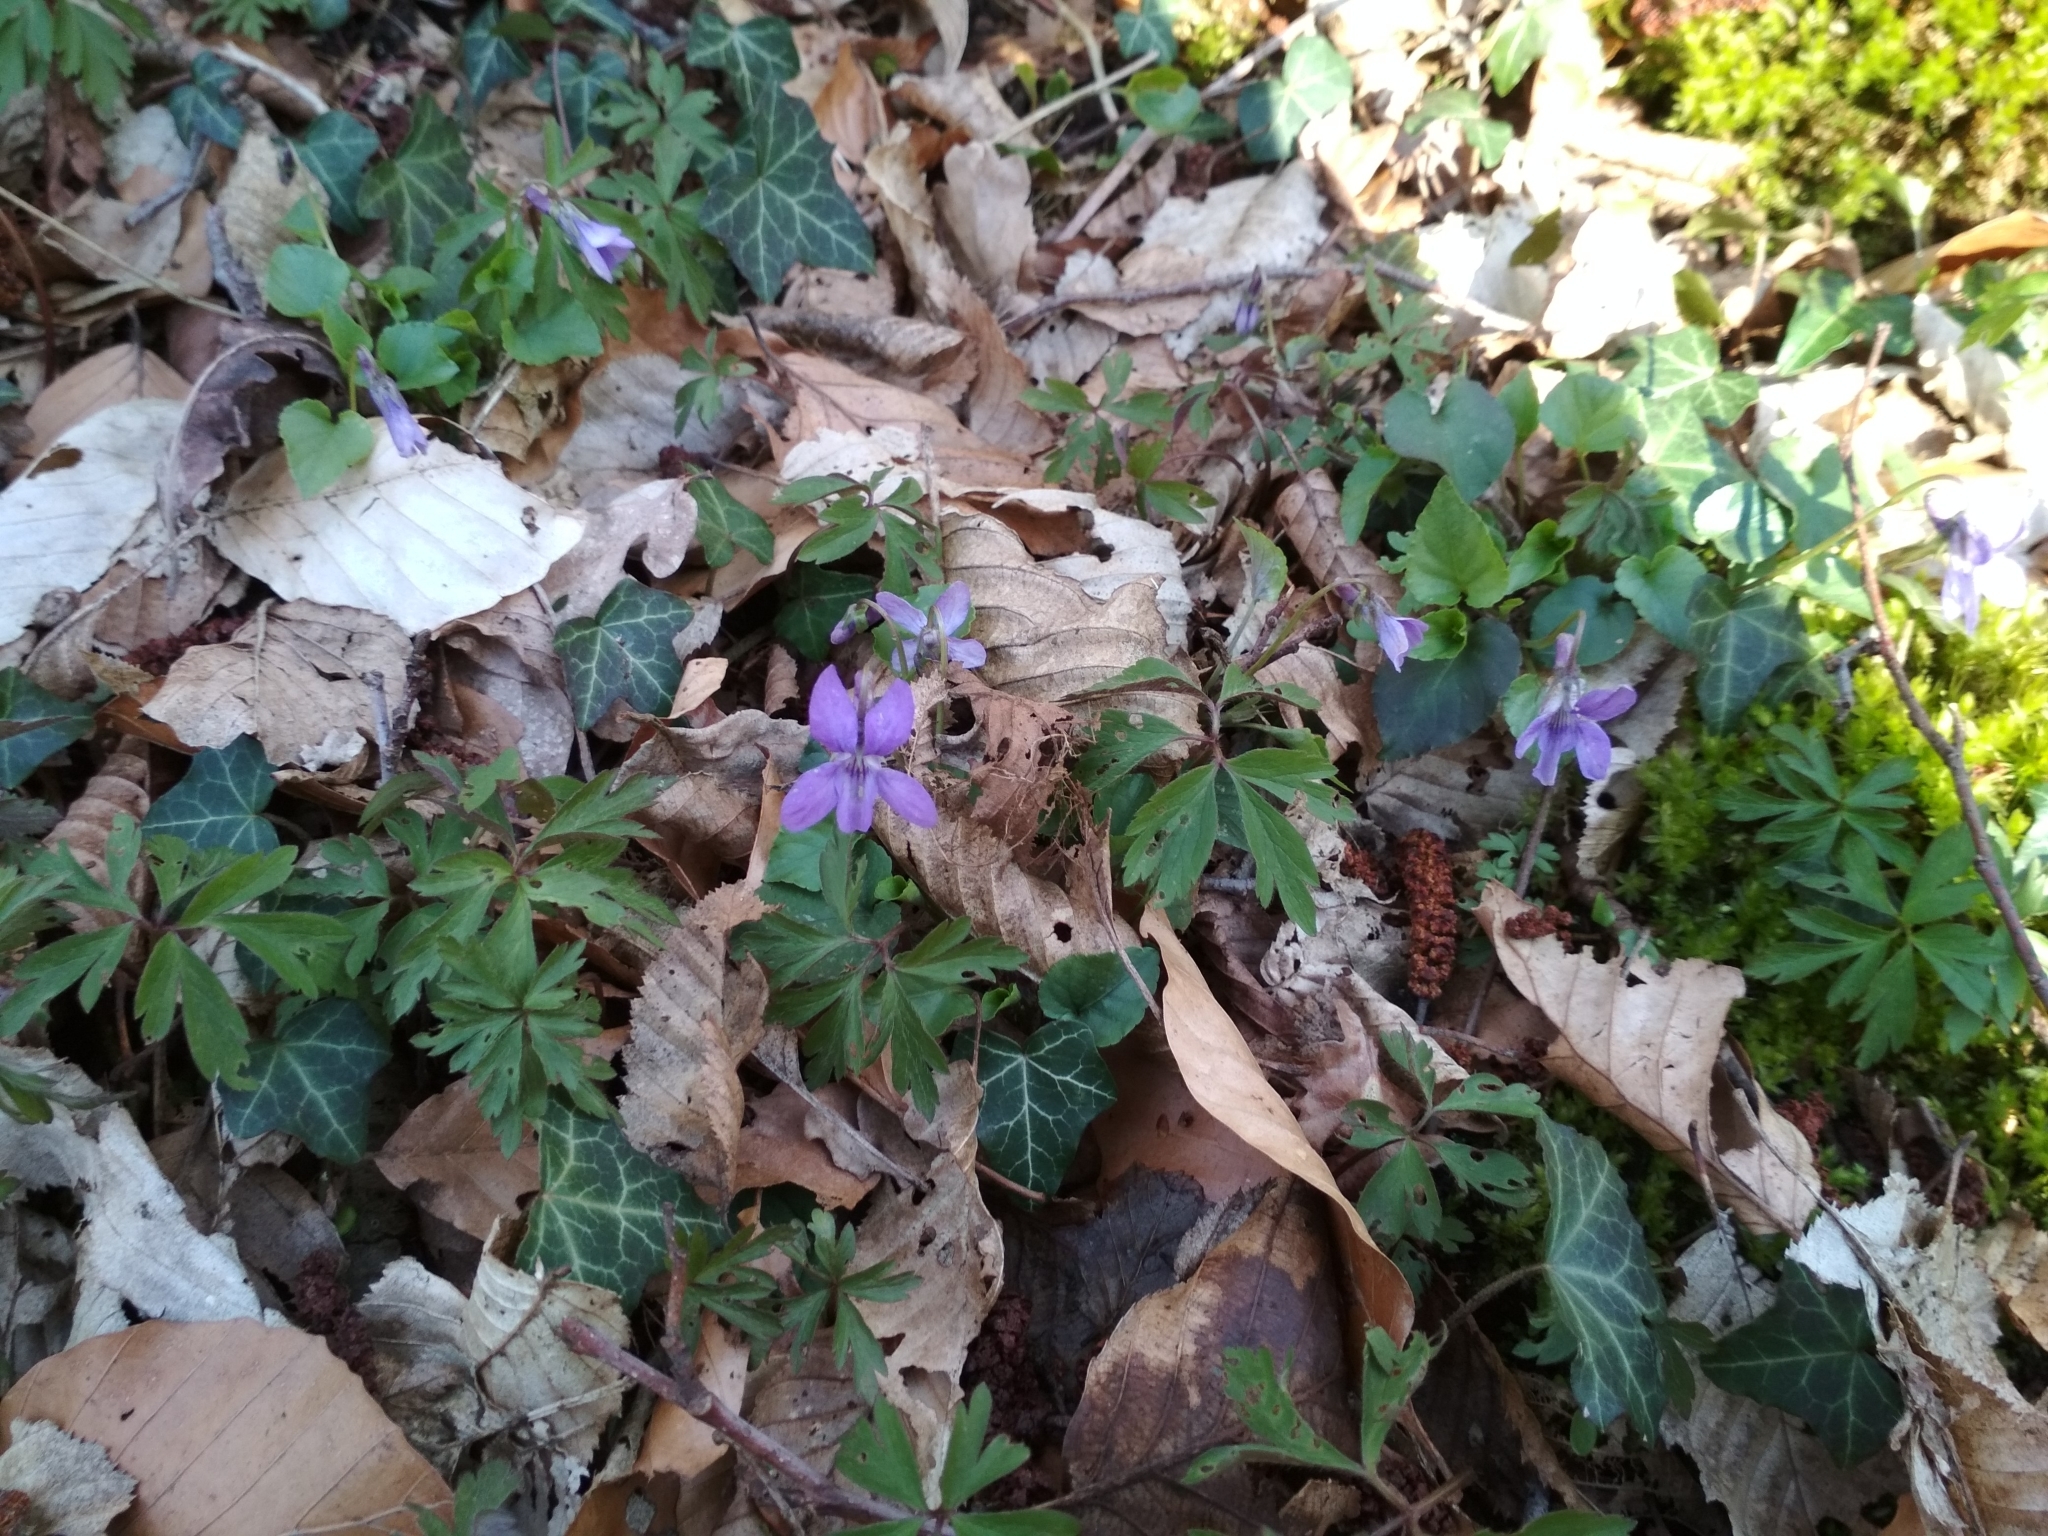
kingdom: Plantae
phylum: Tracheophyta
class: Magnoliopsida
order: Malpighiales
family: Violaceae
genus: Viola
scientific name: Viola reichenbachiana
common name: Early dog-violet
